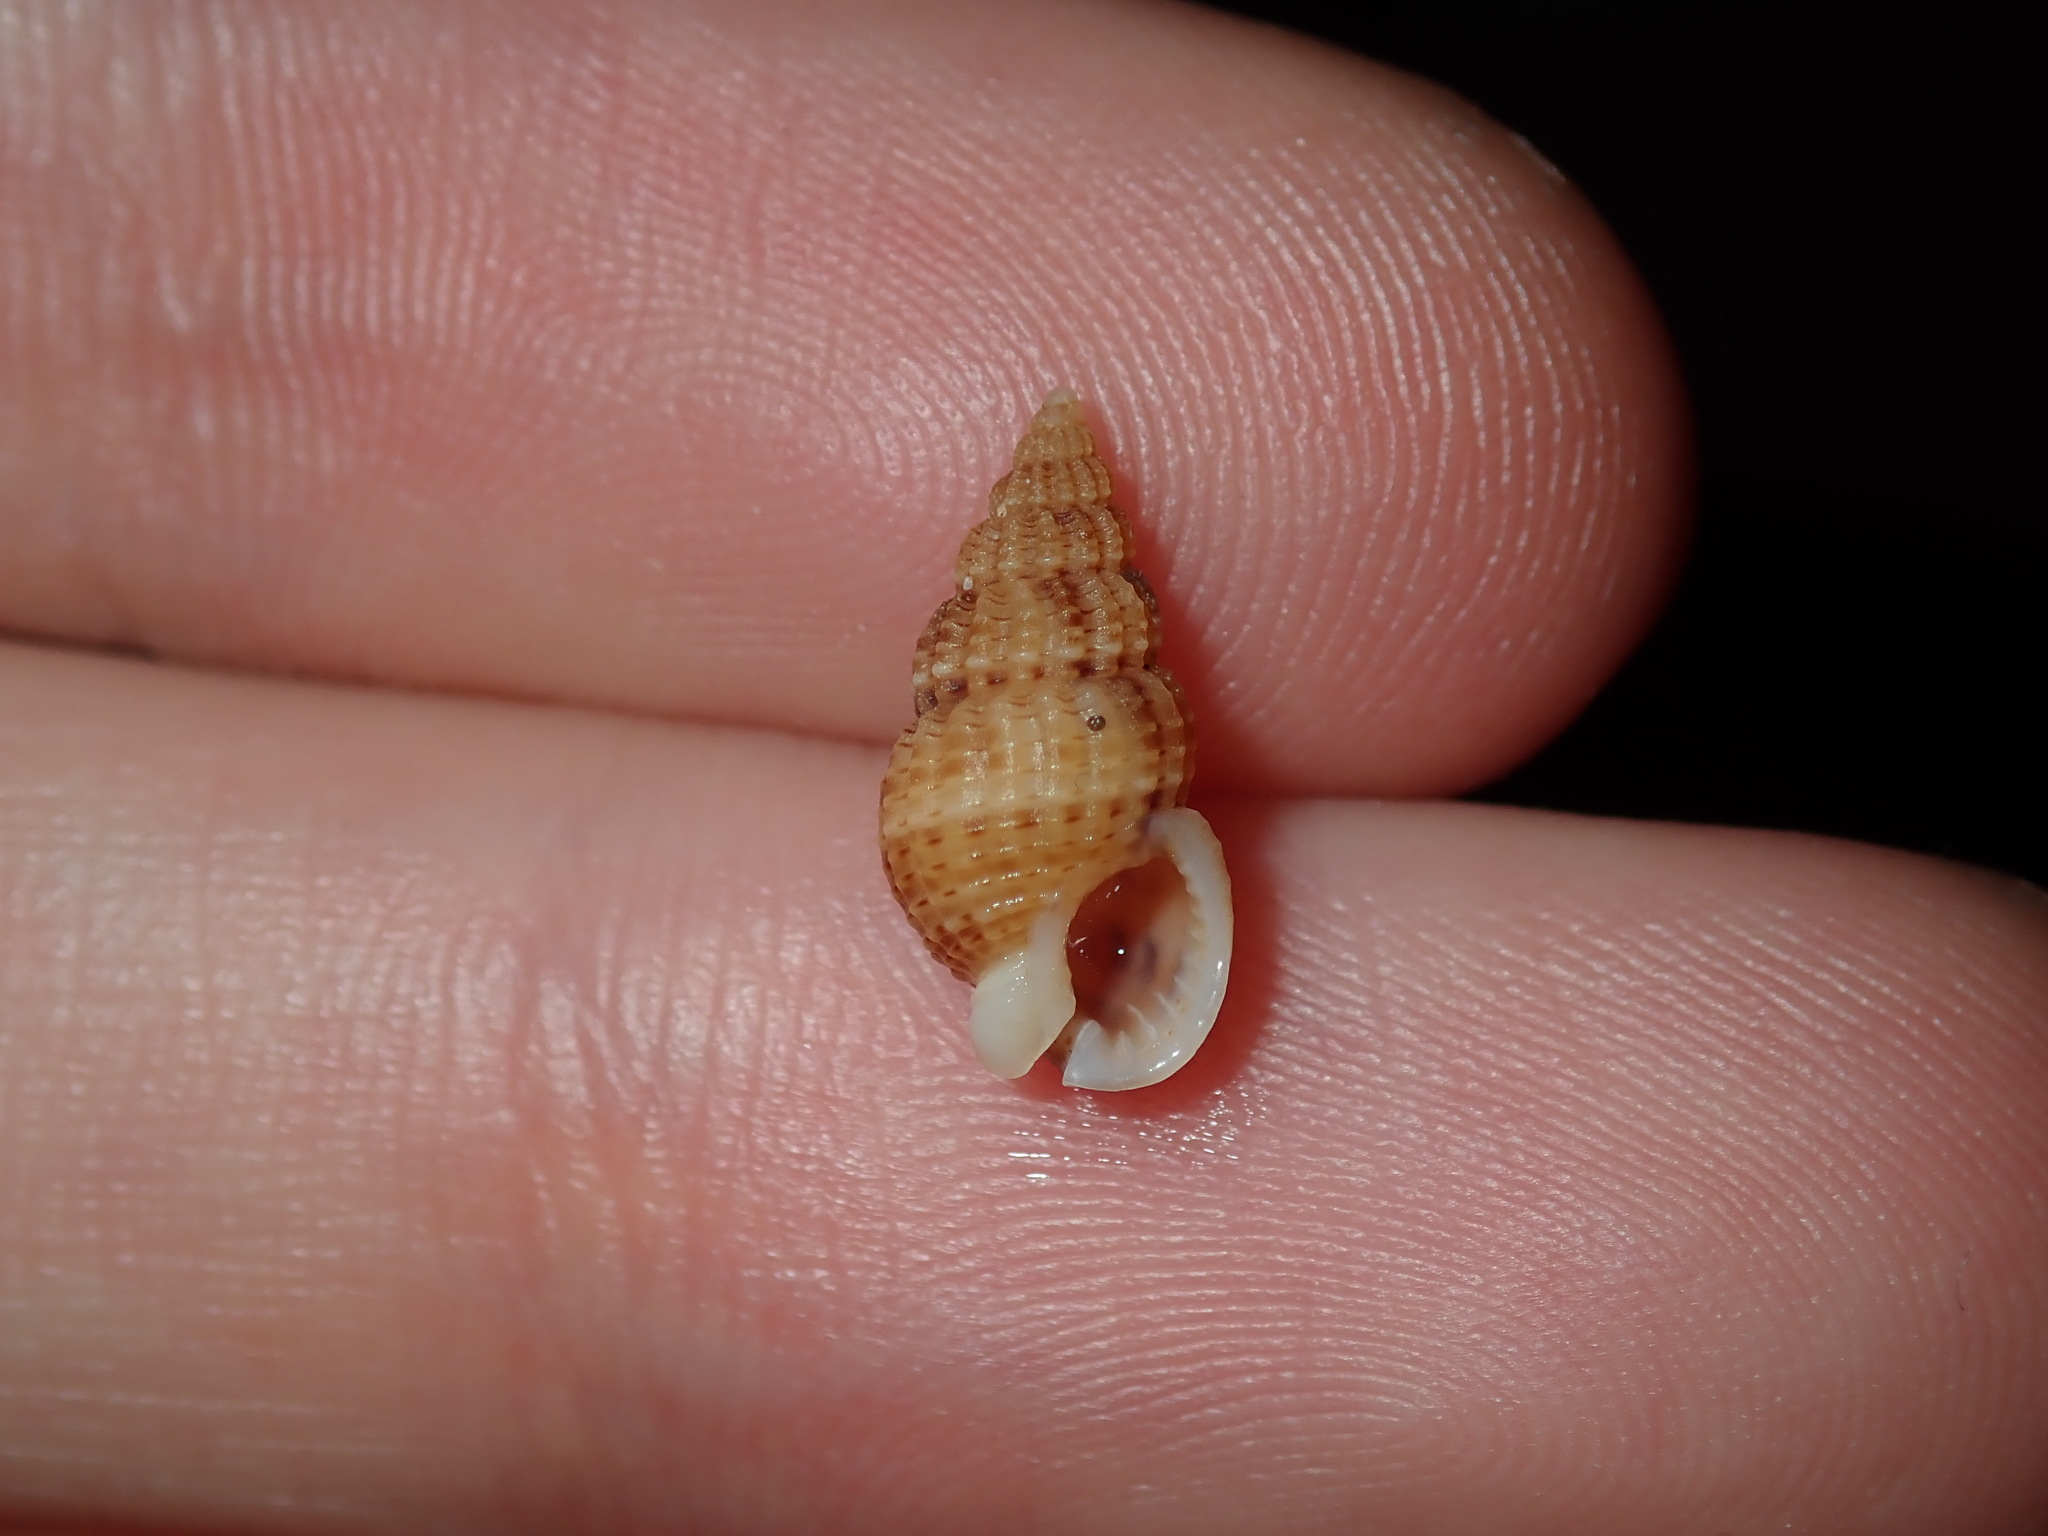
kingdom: Animalia
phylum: Mollusca
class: Gastropoda
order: Neogastropoda
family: Nassariidae
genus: Reticunassa
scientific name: Reticunassa paupera
